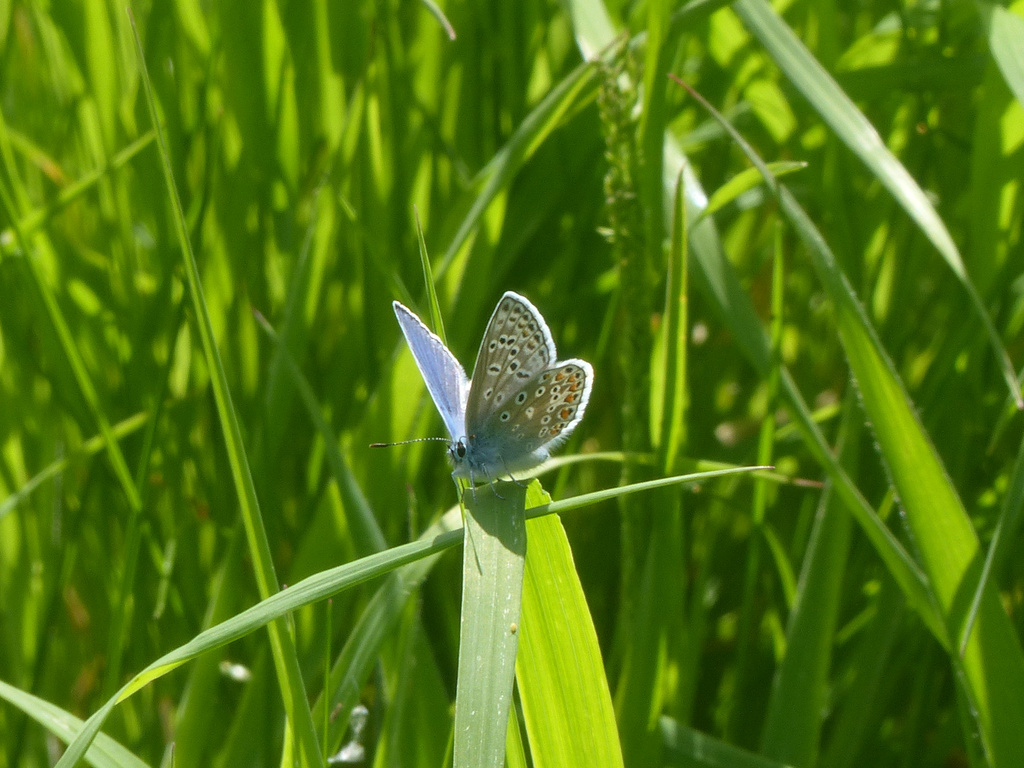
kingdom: Animalia
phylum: Arthropoda
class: Insecta
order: Lepidoptera
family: Lycaenidae
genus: Polyommatus
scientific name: Polyommatus icarus
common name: Common blue
